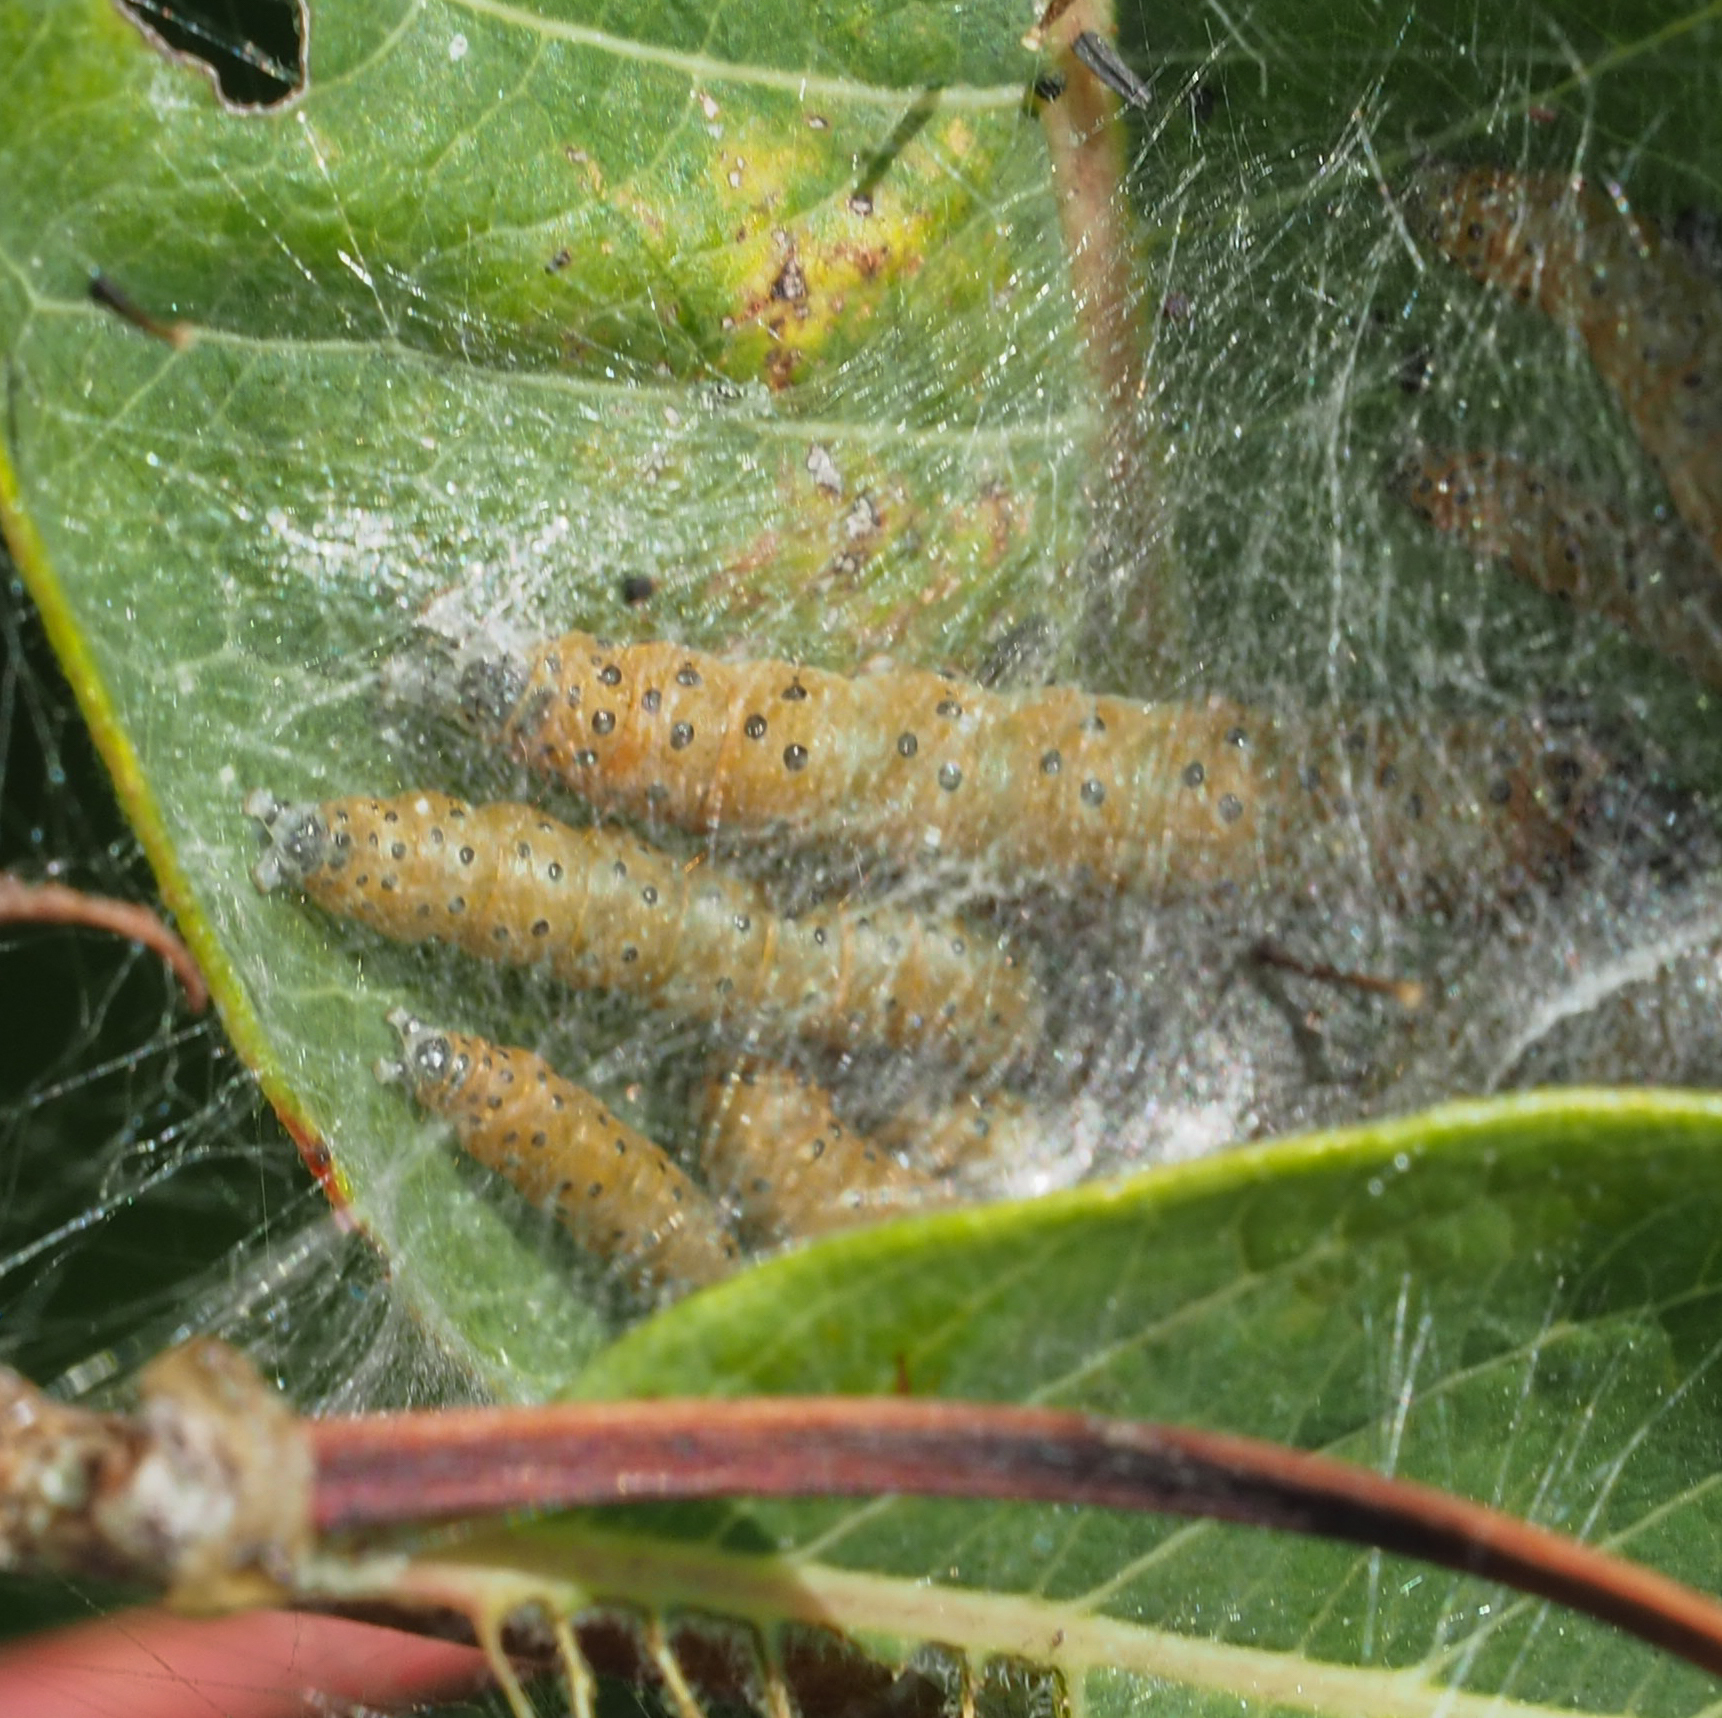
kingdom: Animalia
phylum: Arthropoda
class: Insecta
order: Lepidoptera
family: Crambidae
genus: Saucrobotys
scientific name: Saucrobotys futilalis
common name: Dogbane saucrobotys moth
